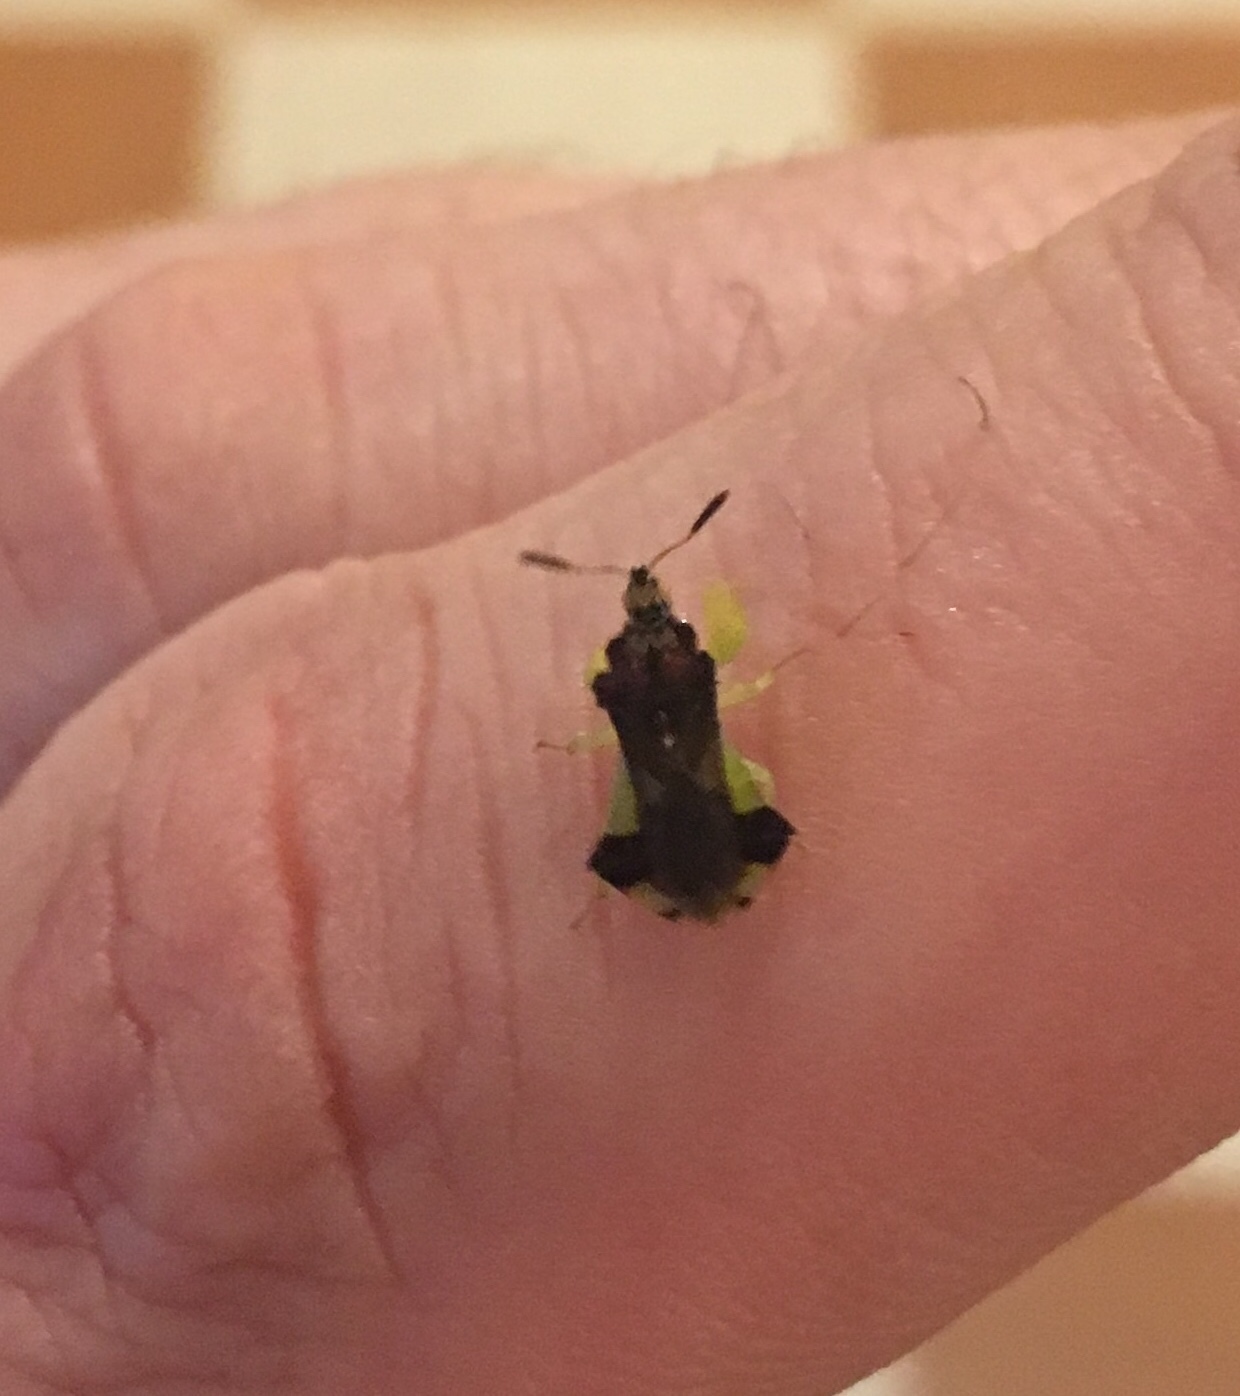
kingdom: Animalia
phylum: Arthropoda
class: Insecta
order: Hemiptera
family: Reduviidae
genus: Phymata
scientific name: Phymata pennsylvanica
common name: Pennsylvania ambush bug
